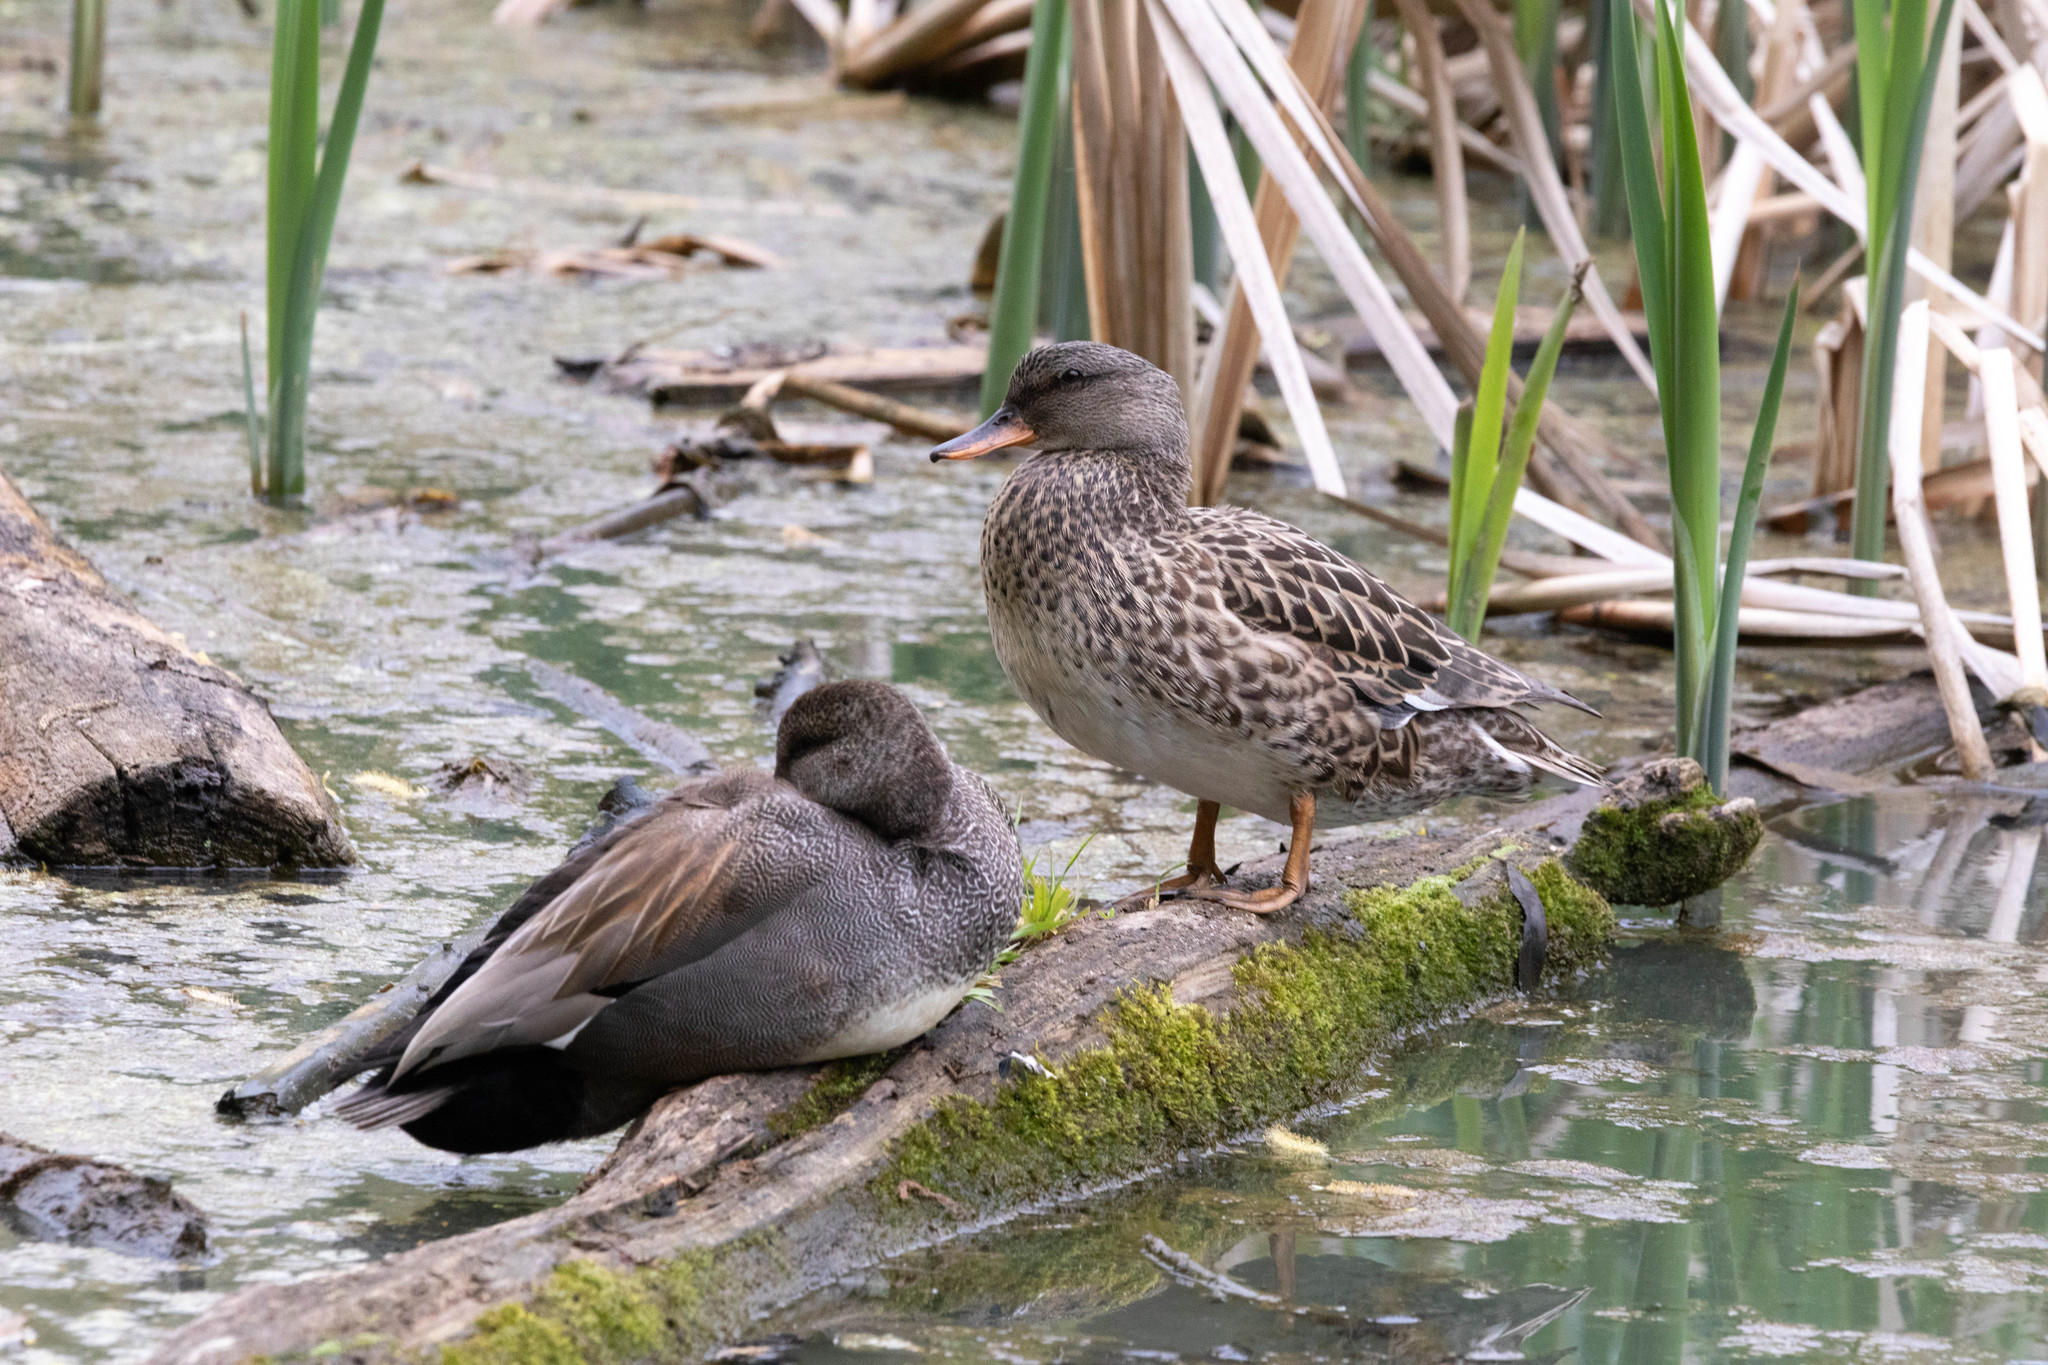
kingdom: Animalia
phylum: Chordata
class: Aves
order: Anseriformes
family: Anatidae
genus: Mareca
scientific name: Mareca strepera
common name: Gadwall
